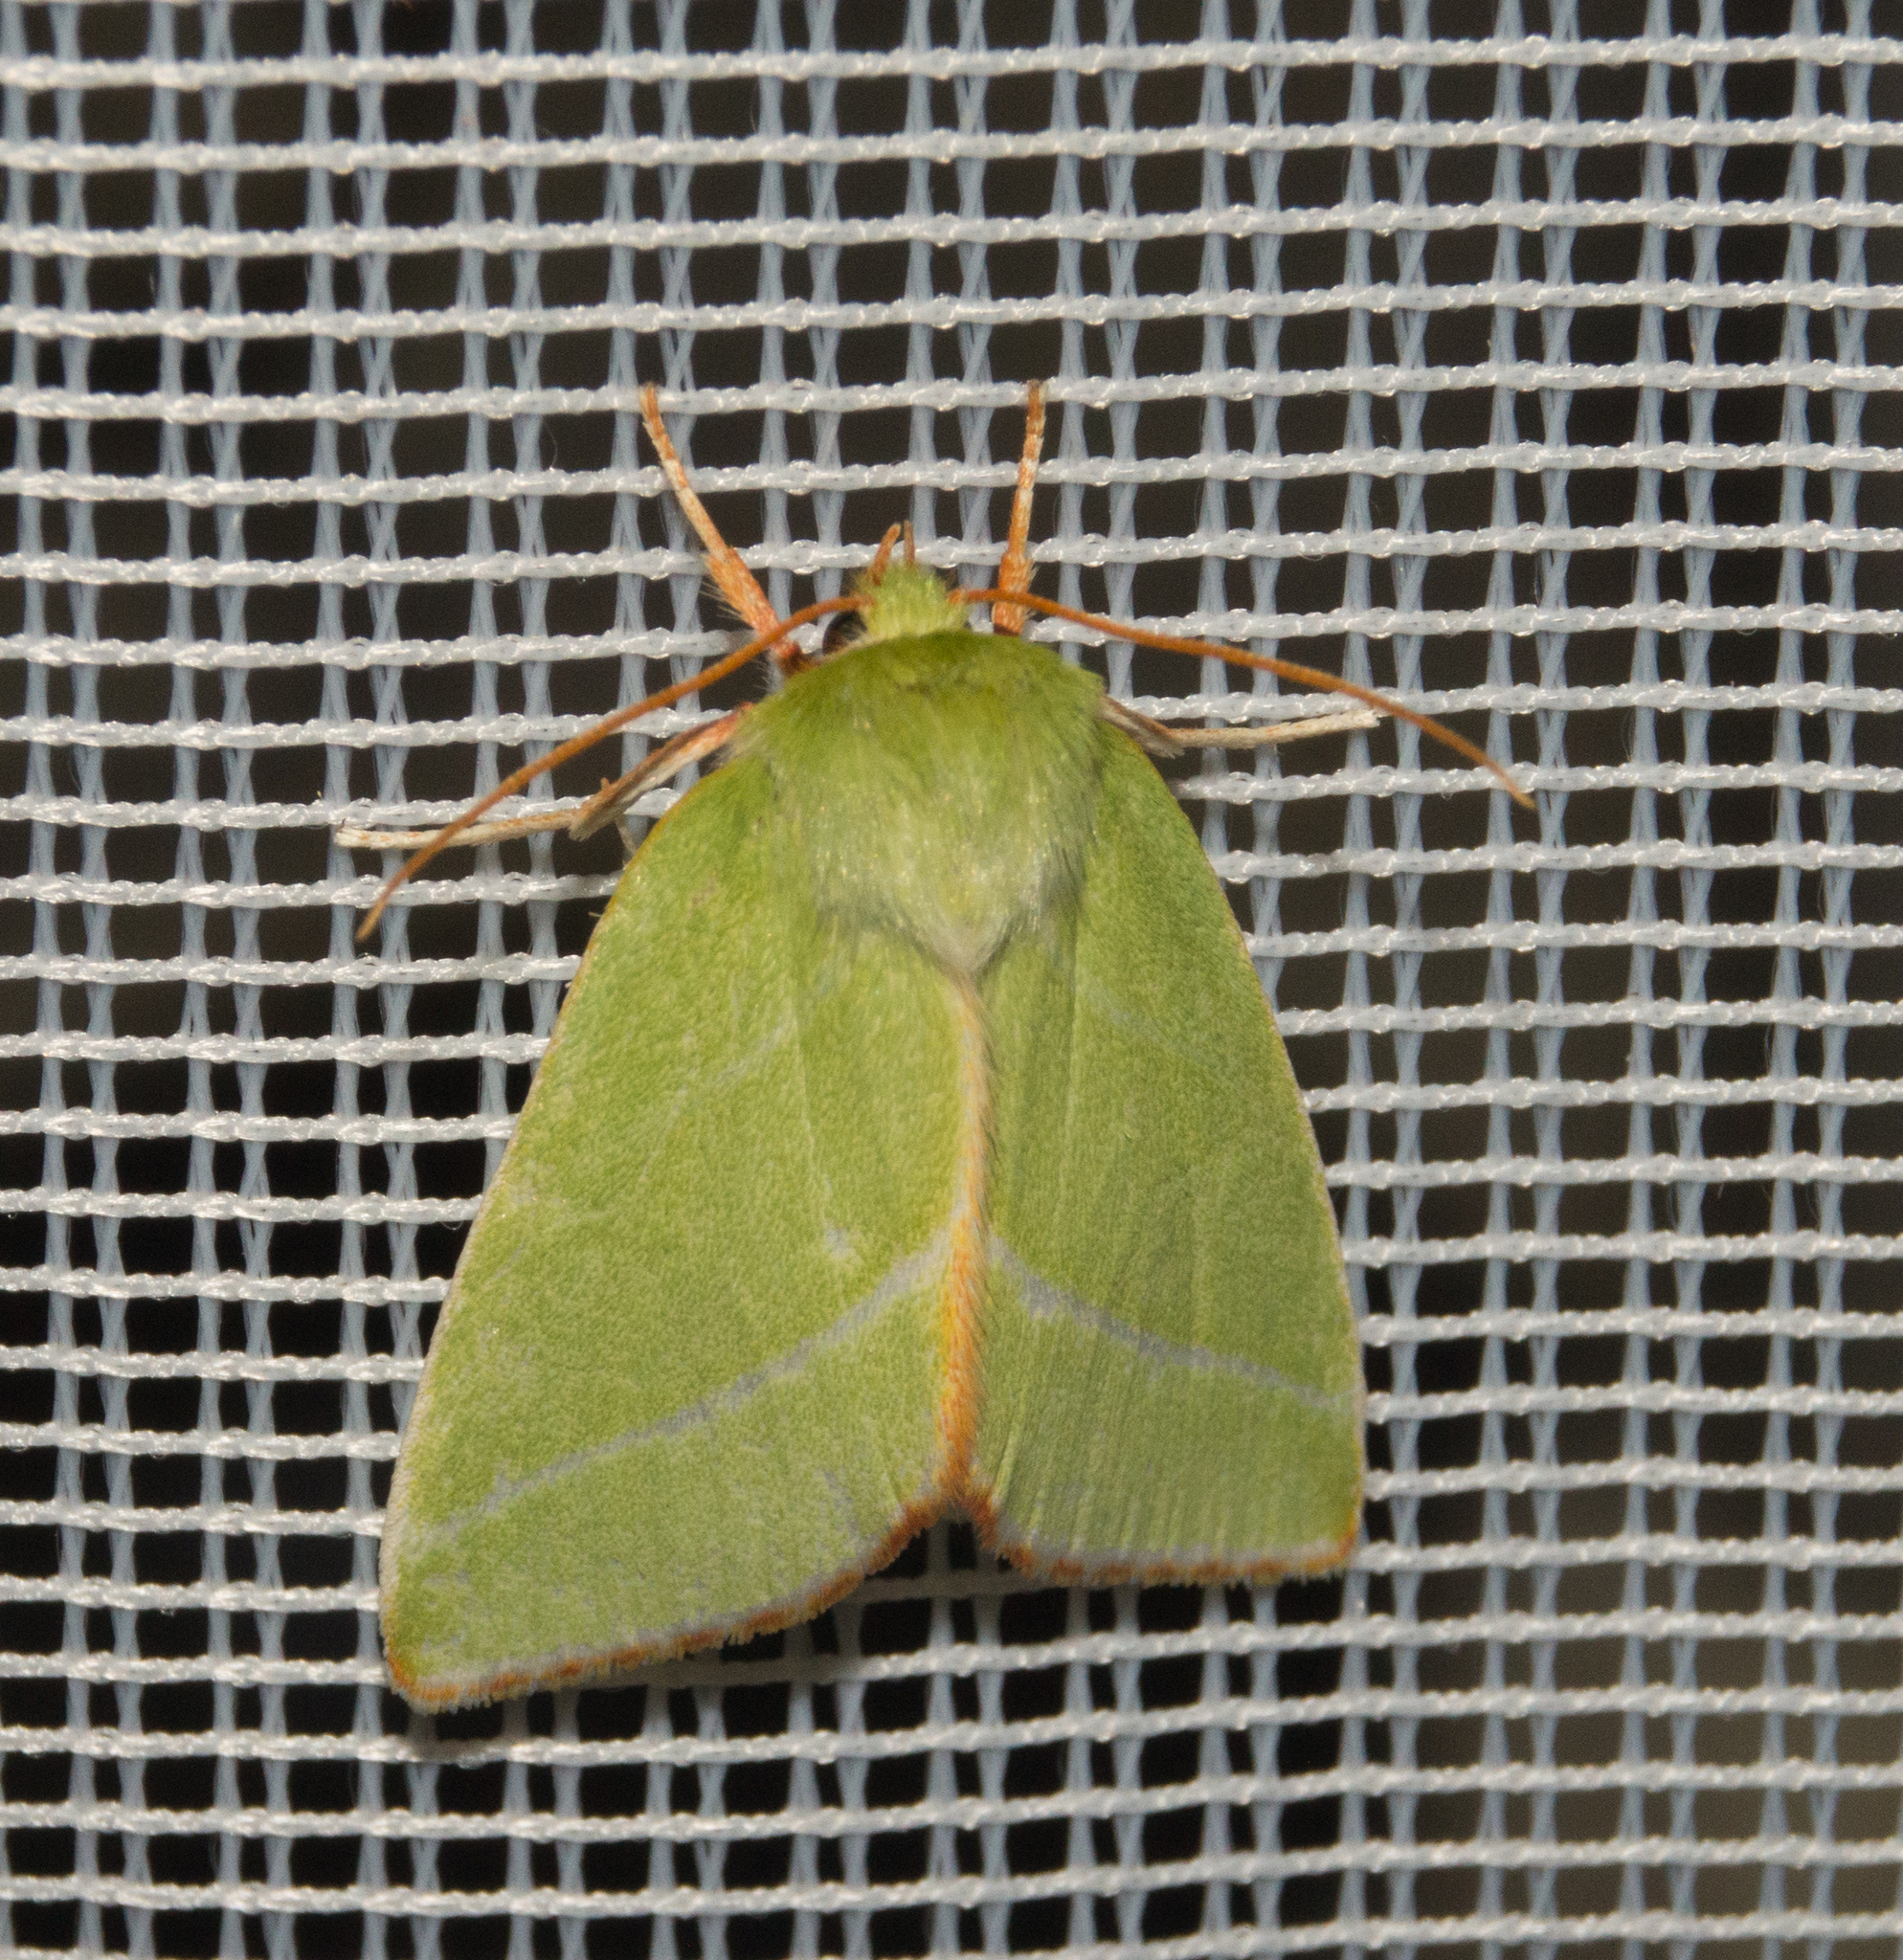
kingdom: Animalia
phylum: Arthropoda
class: Insecta
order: Lepidoptera
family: Nolidae
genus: Pseudoips
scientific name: Pseudoips prasinana
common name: Green silver-lines
